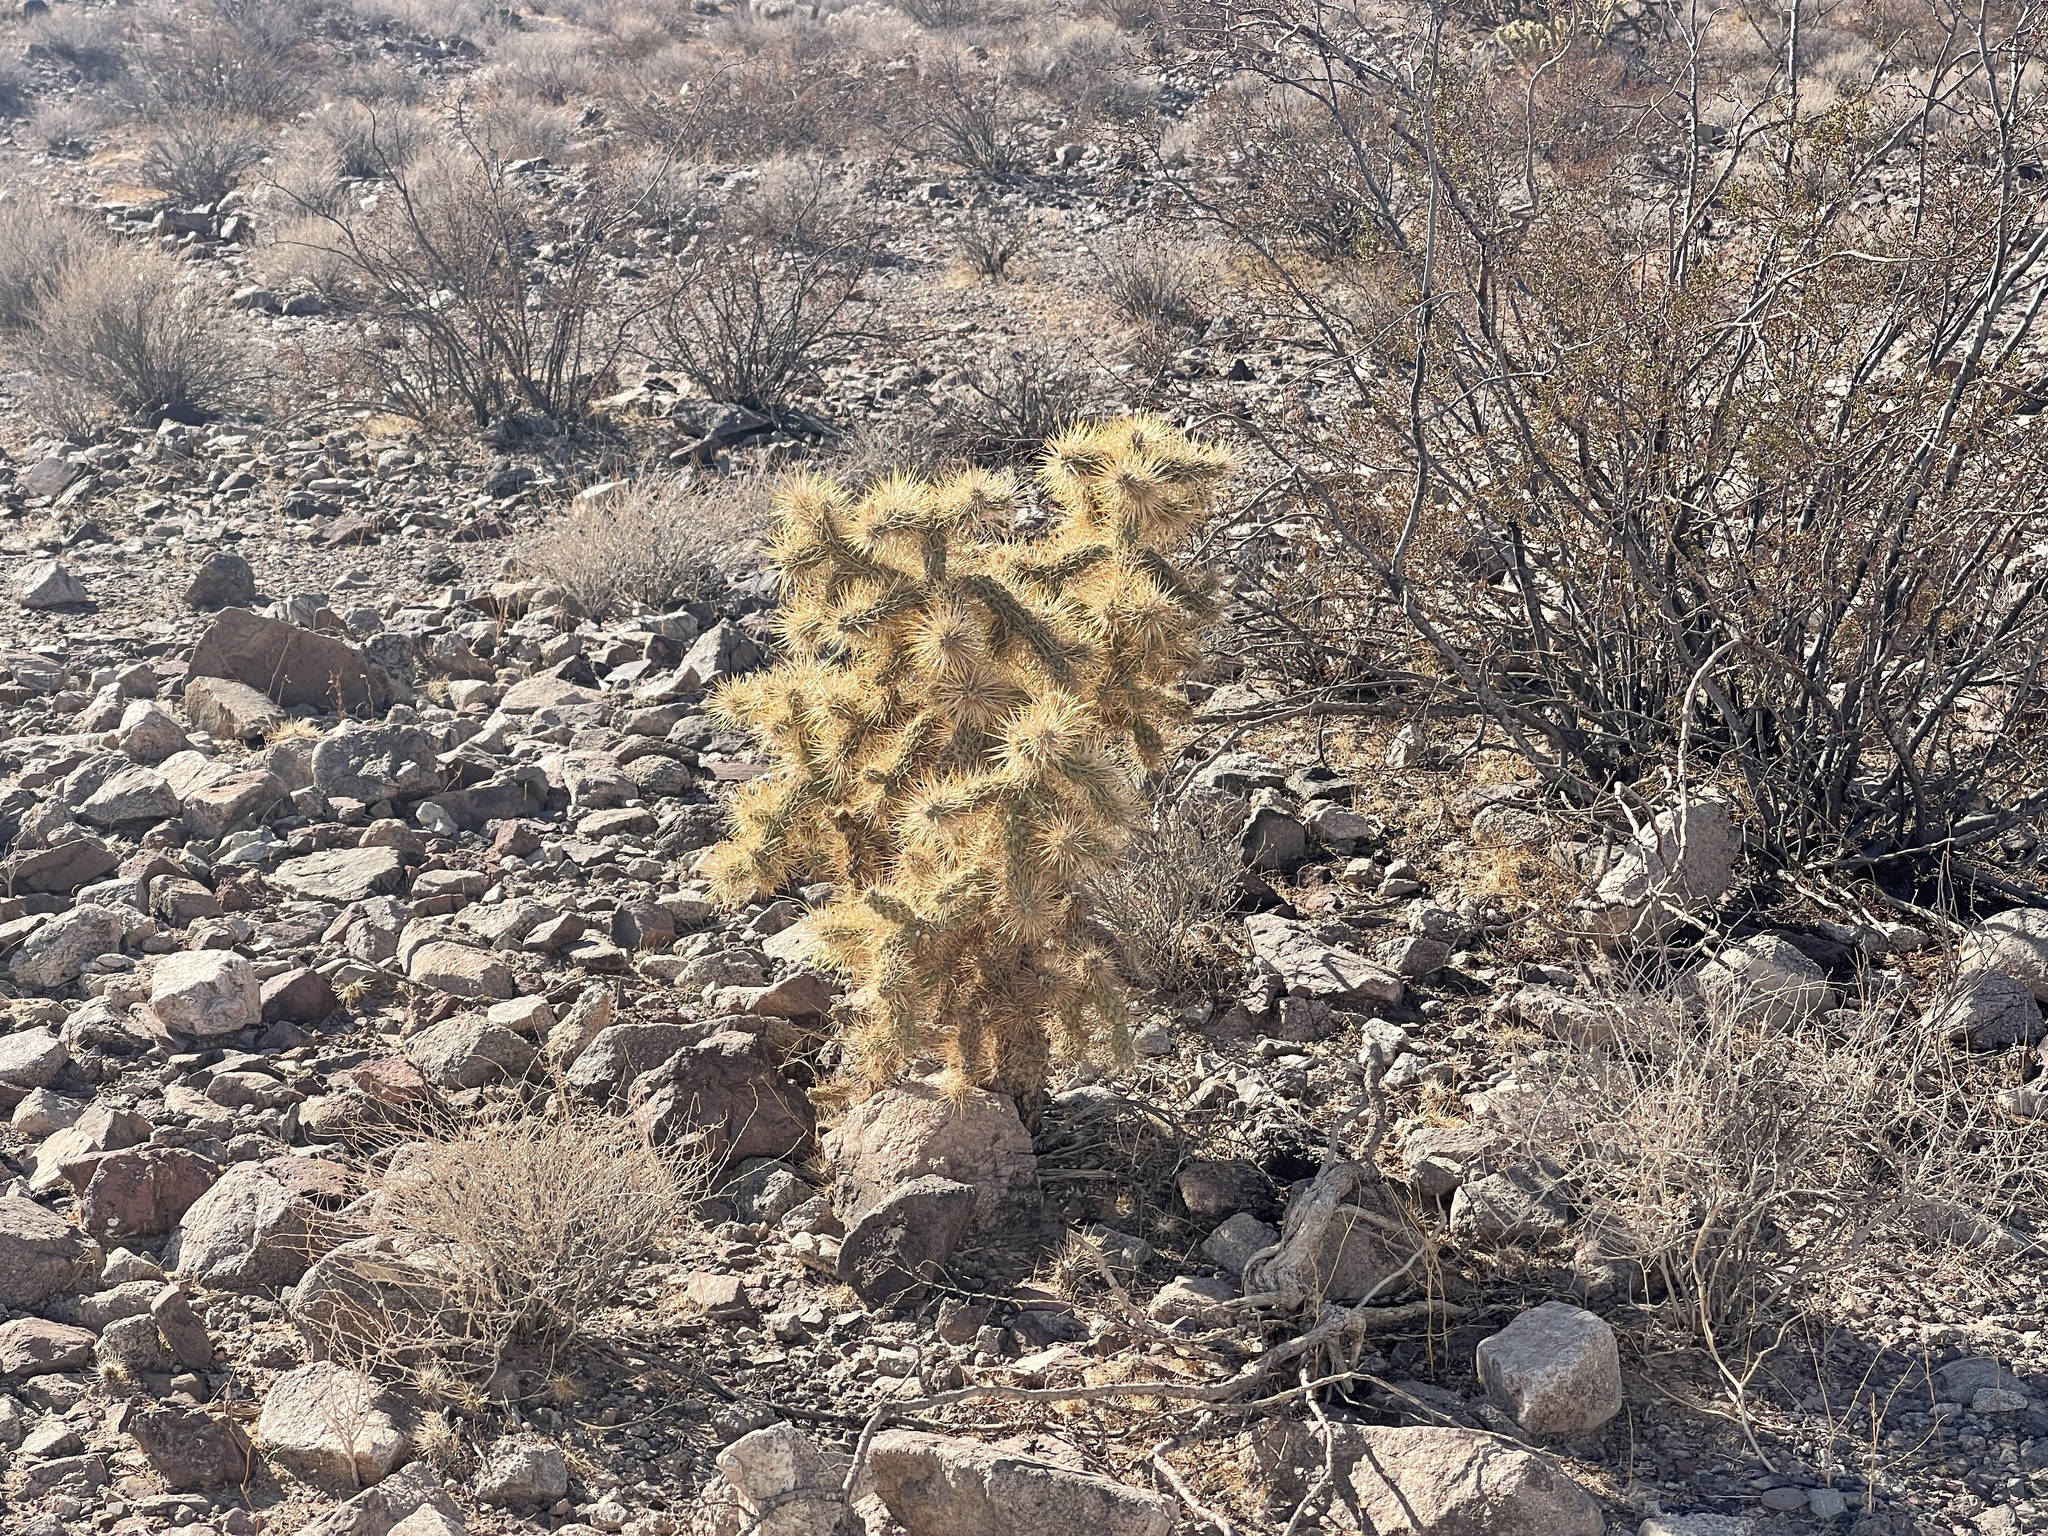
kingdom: Plantae
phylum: Tracheophyta
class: Magnoliopsida
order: Caryophyllales
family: Cactaceae
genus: Cylindropuntia
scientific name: Cylindropuntia echinocarpa
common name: Ground cholla
